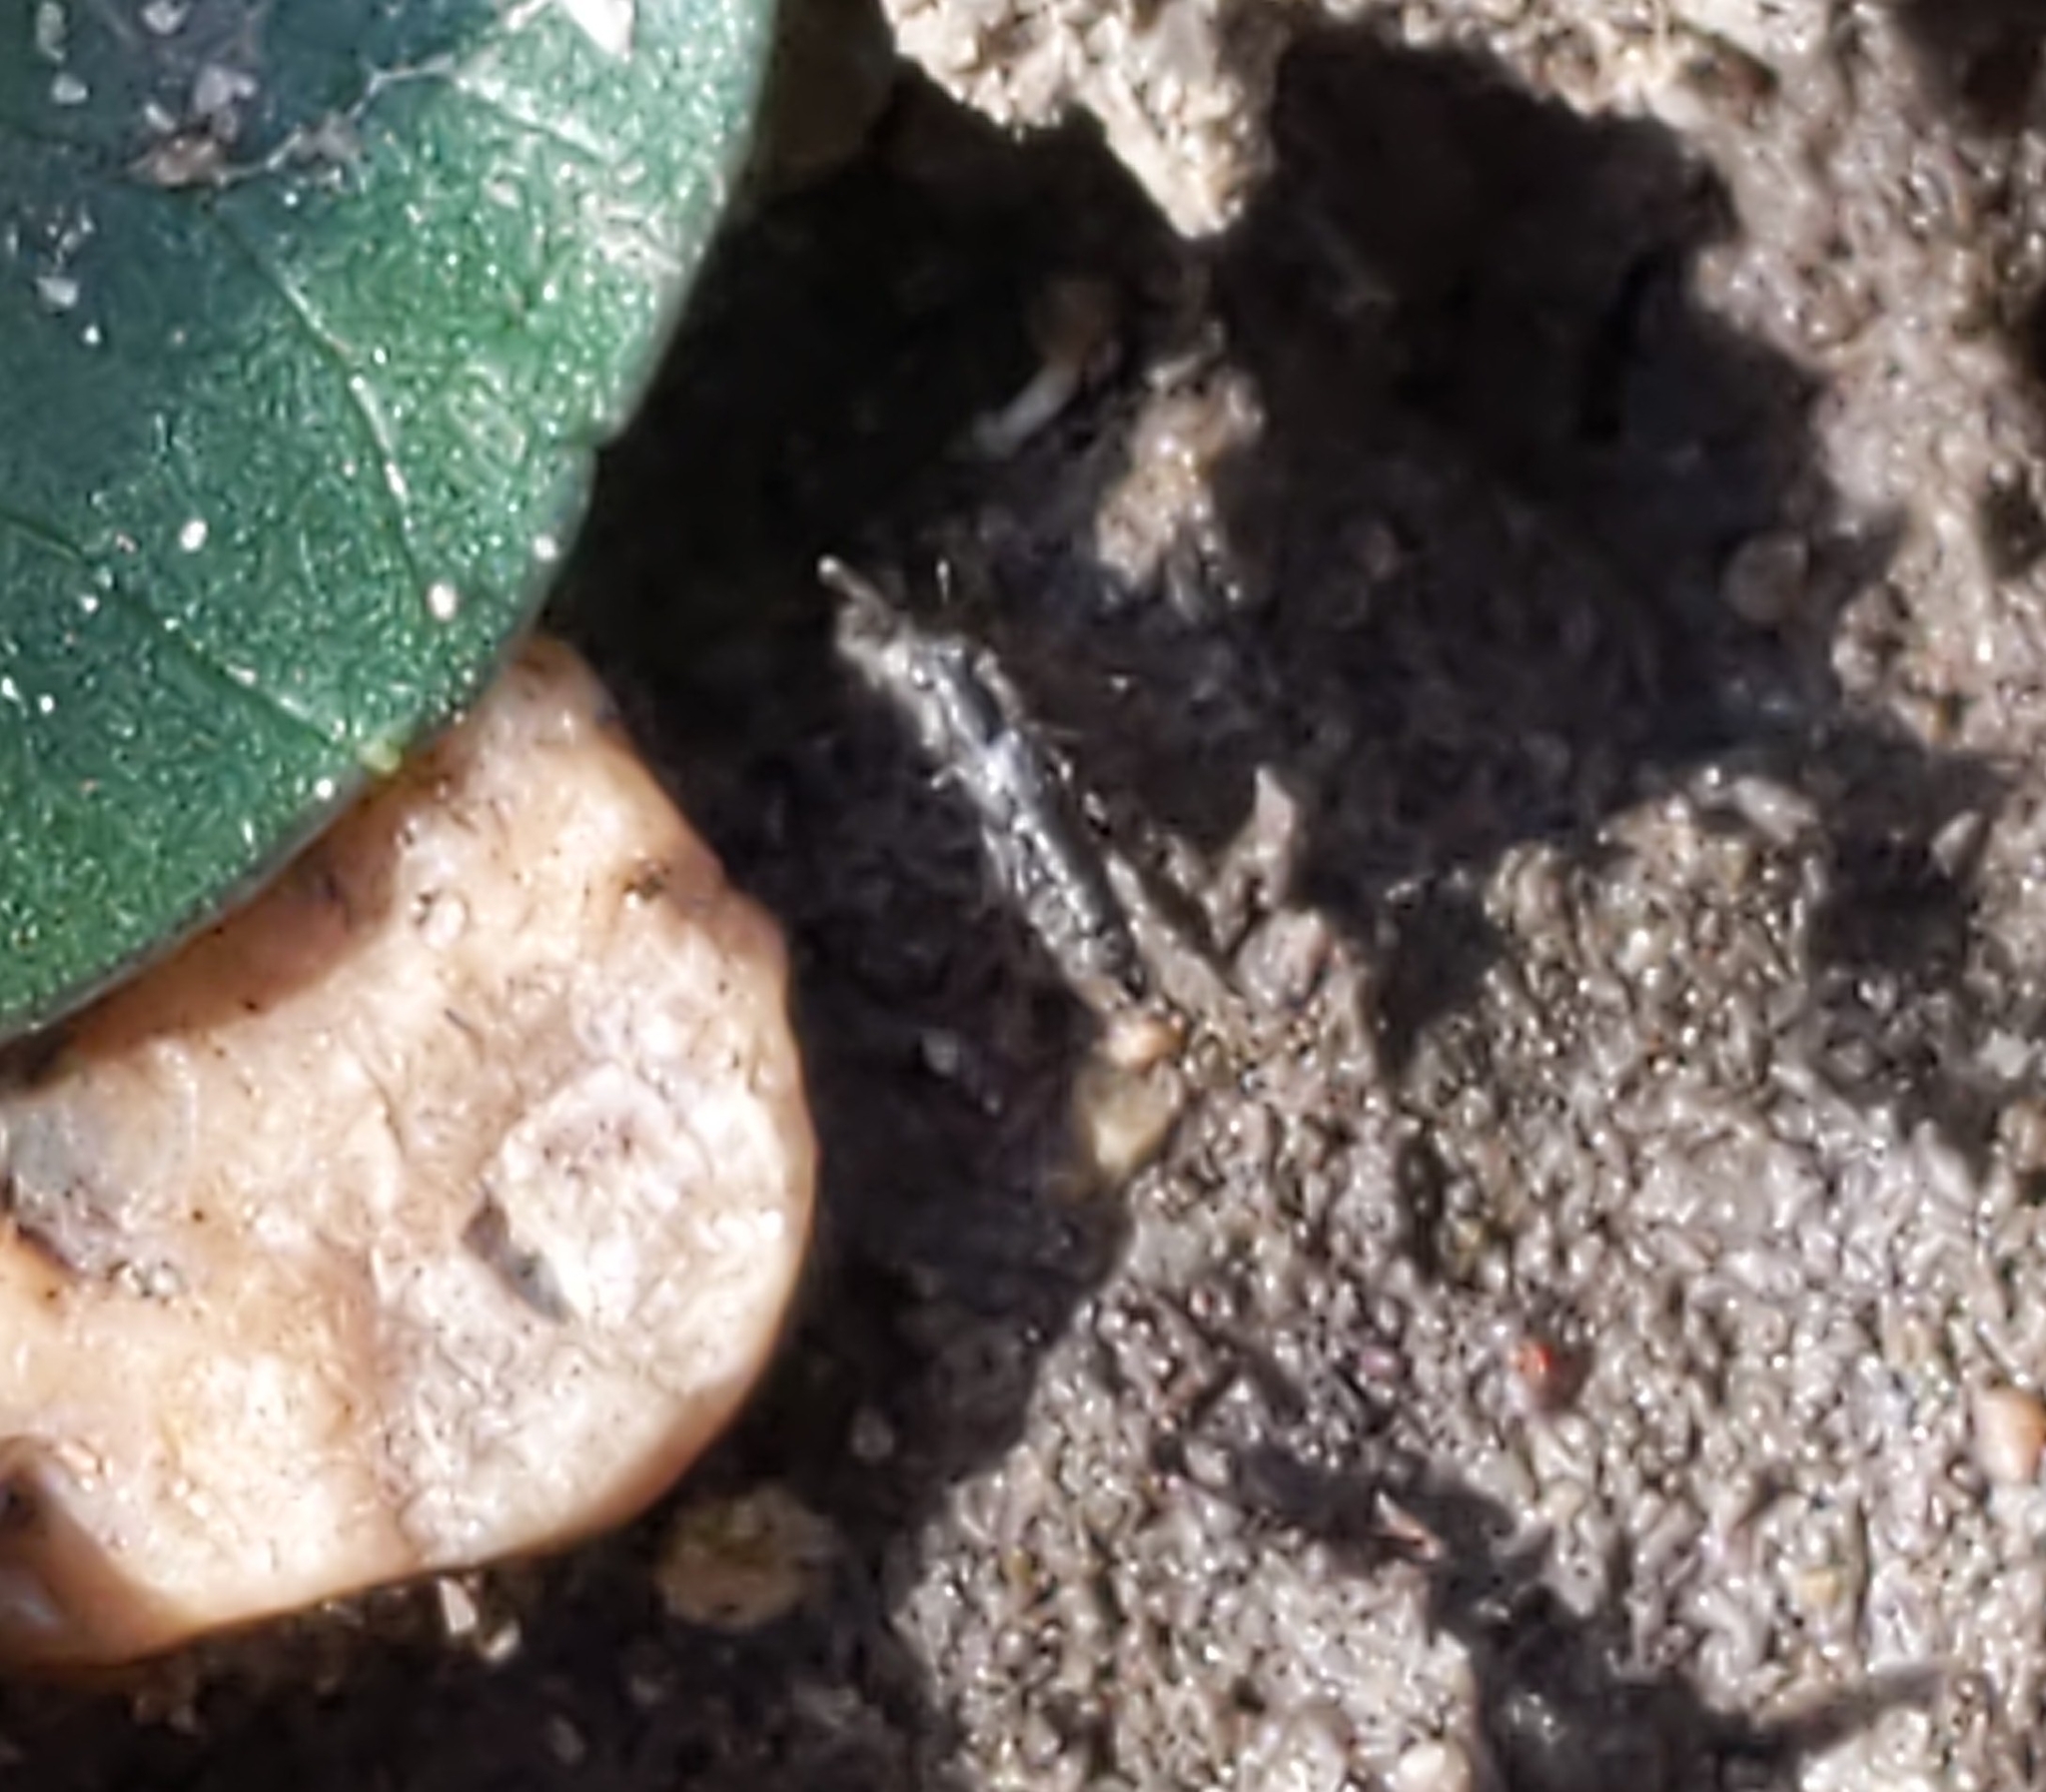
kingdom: Animalia
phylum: Arthropoda
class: Insecta
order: Coleoptera
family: Staphylinidae
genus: Stenus
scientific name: Stenus
